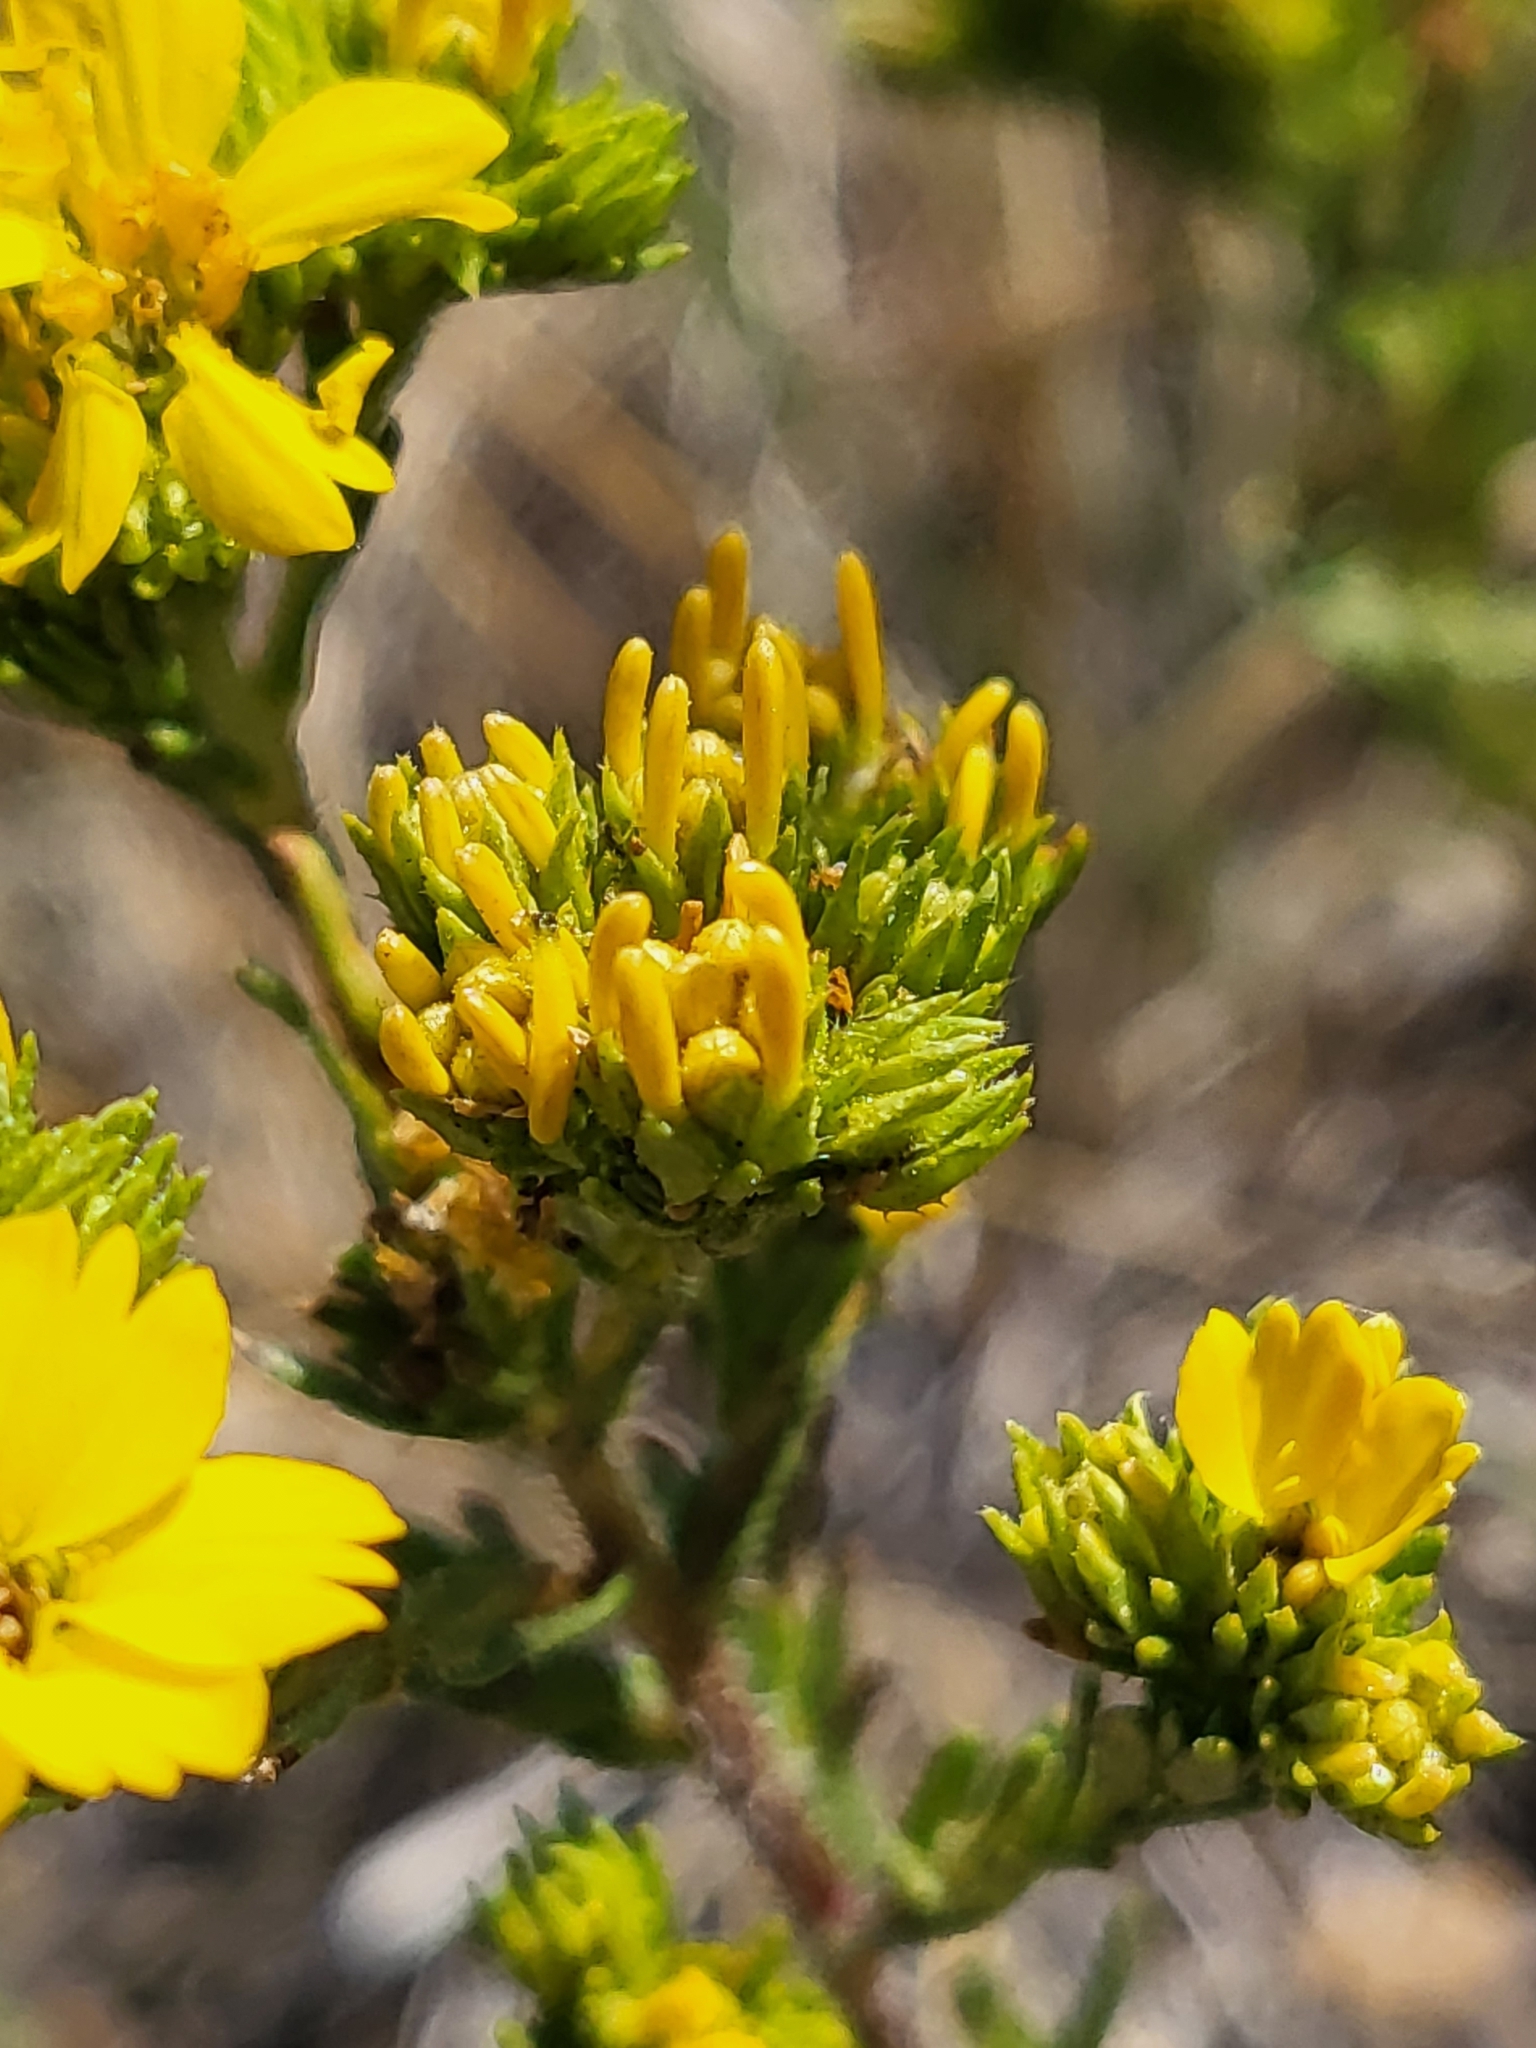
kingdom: Plantae
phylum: Tracheophyta
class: Magnoliopsida
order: Asterales
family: Asteraceae
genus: Deinandra
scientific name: Deinandra fasciculata
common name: Clustered tarweed
